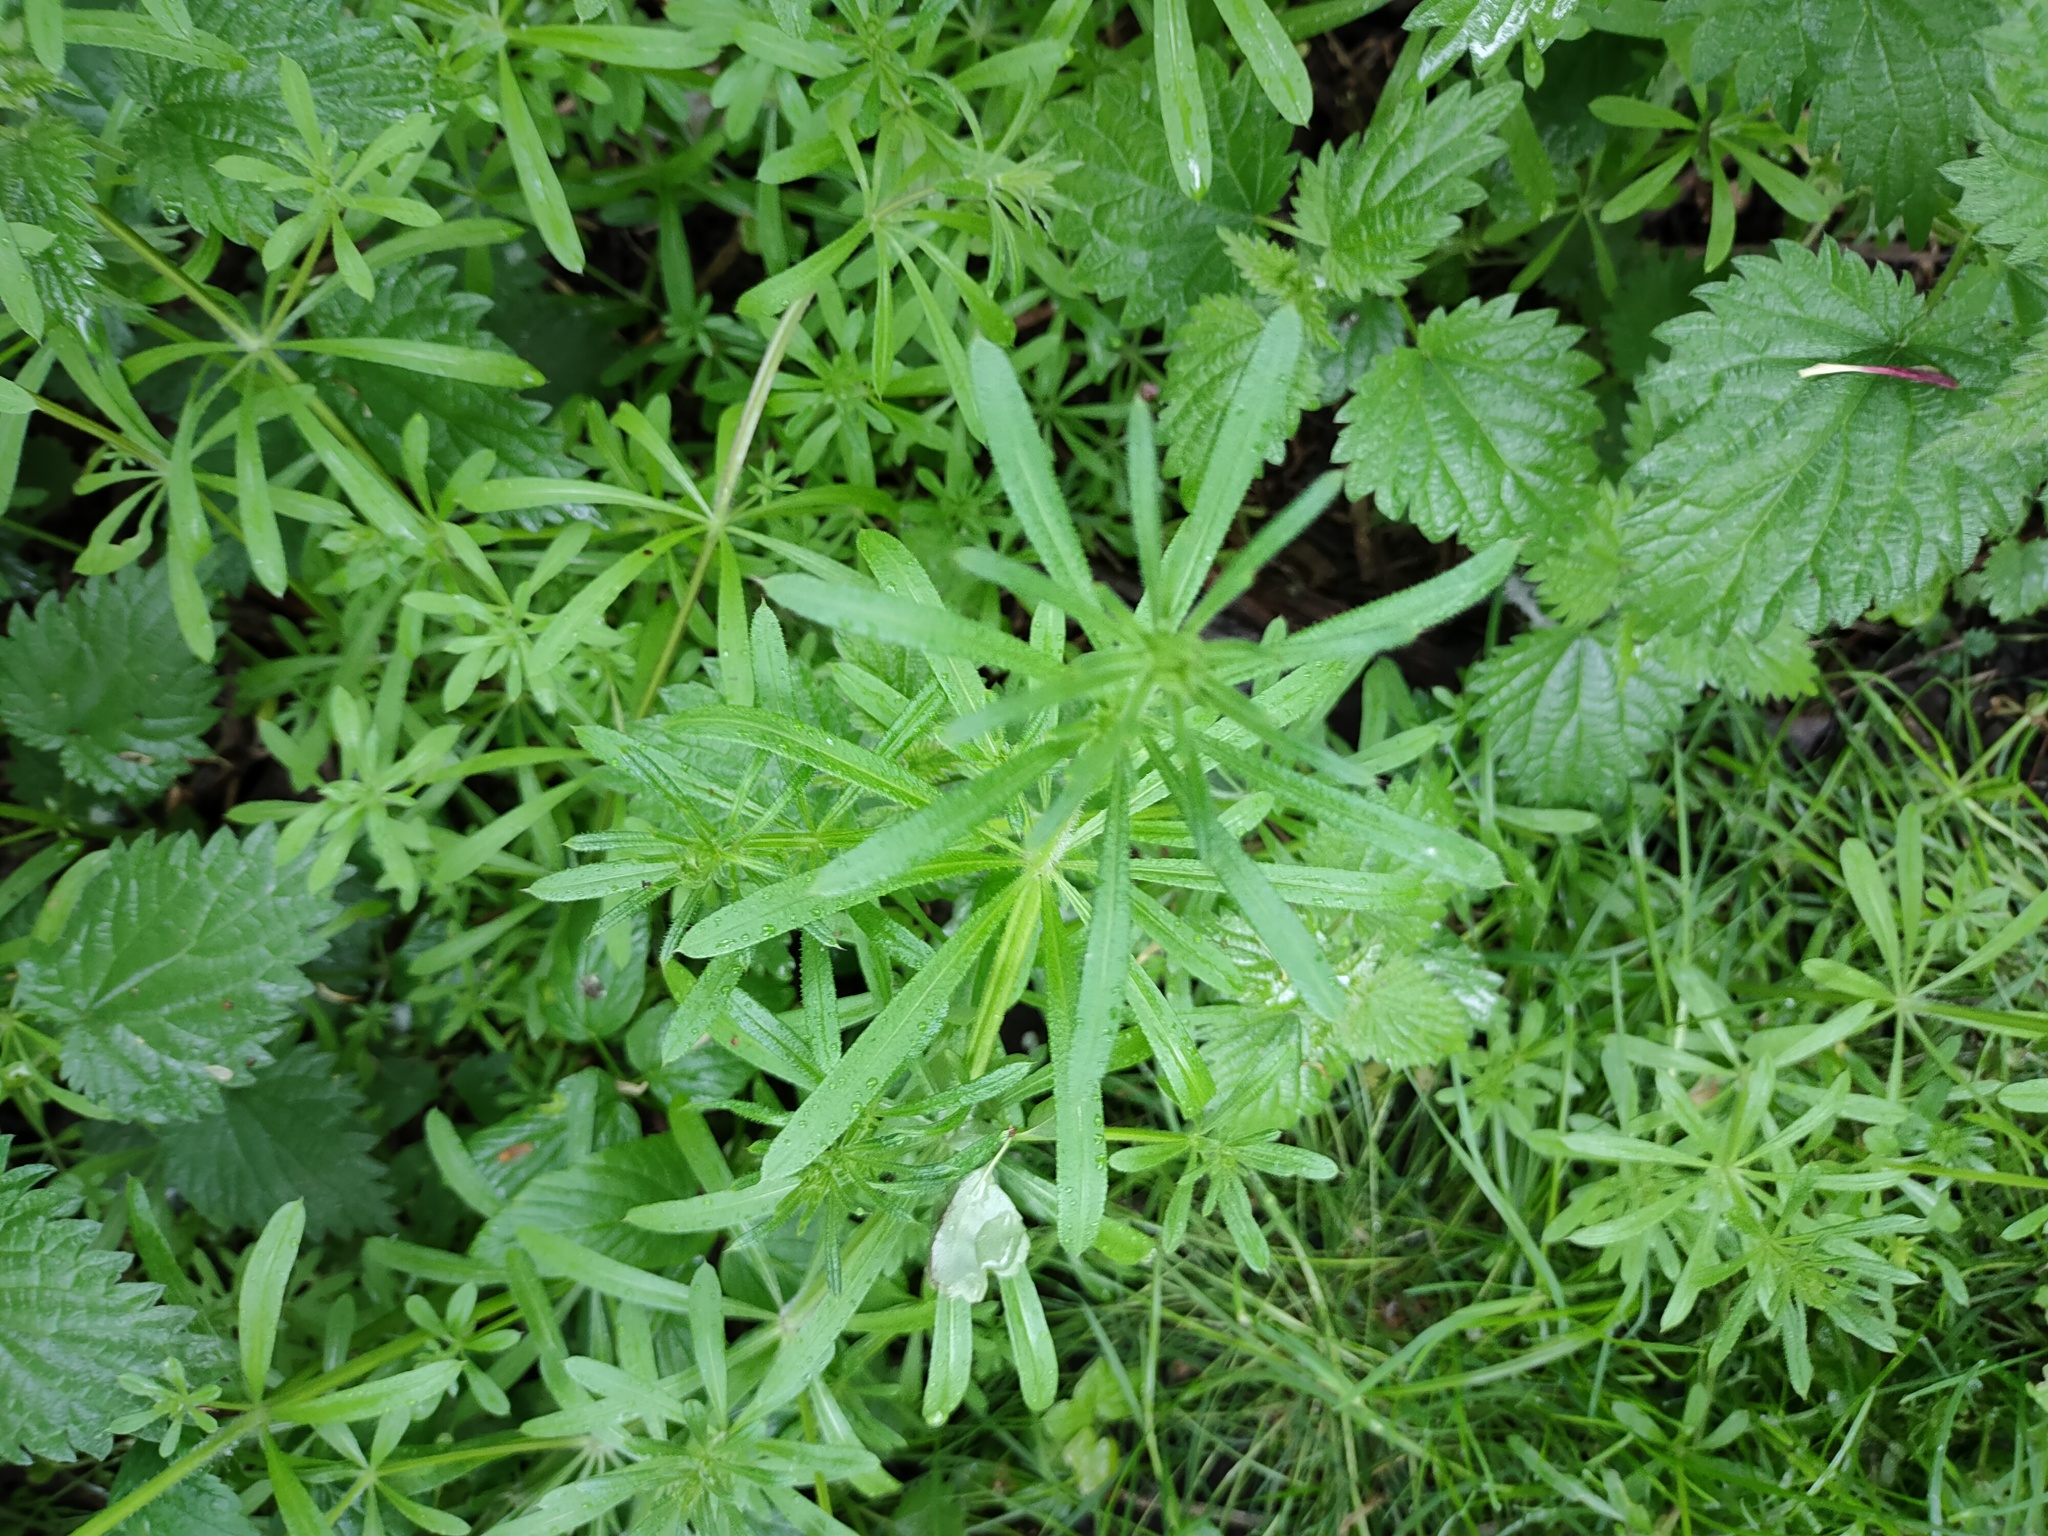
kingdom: Plantae
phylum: Tracheophyta
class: Magnoliopsida
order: Gentianales
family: Rubiaceae
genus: Galium
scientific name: Galium aparine
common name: Cleavers
